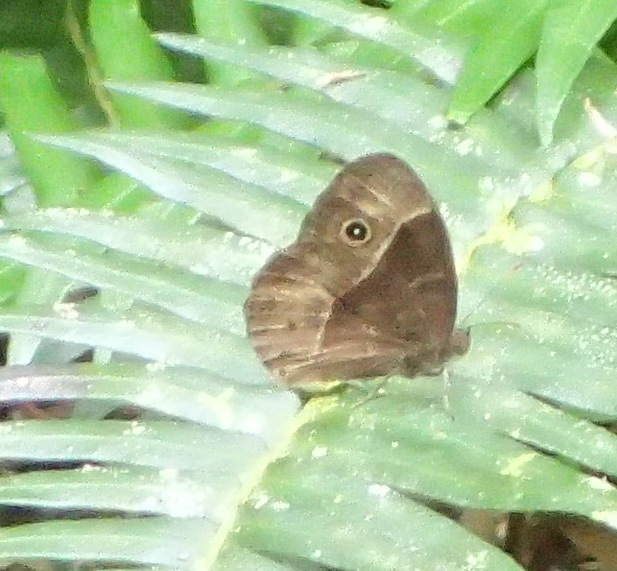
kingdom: Animalia
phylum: Arthropoda
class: Insecta
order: Lepidoptera
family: Nymphalidae
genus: Mycalesis
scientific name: Mycalesis rhacotis
